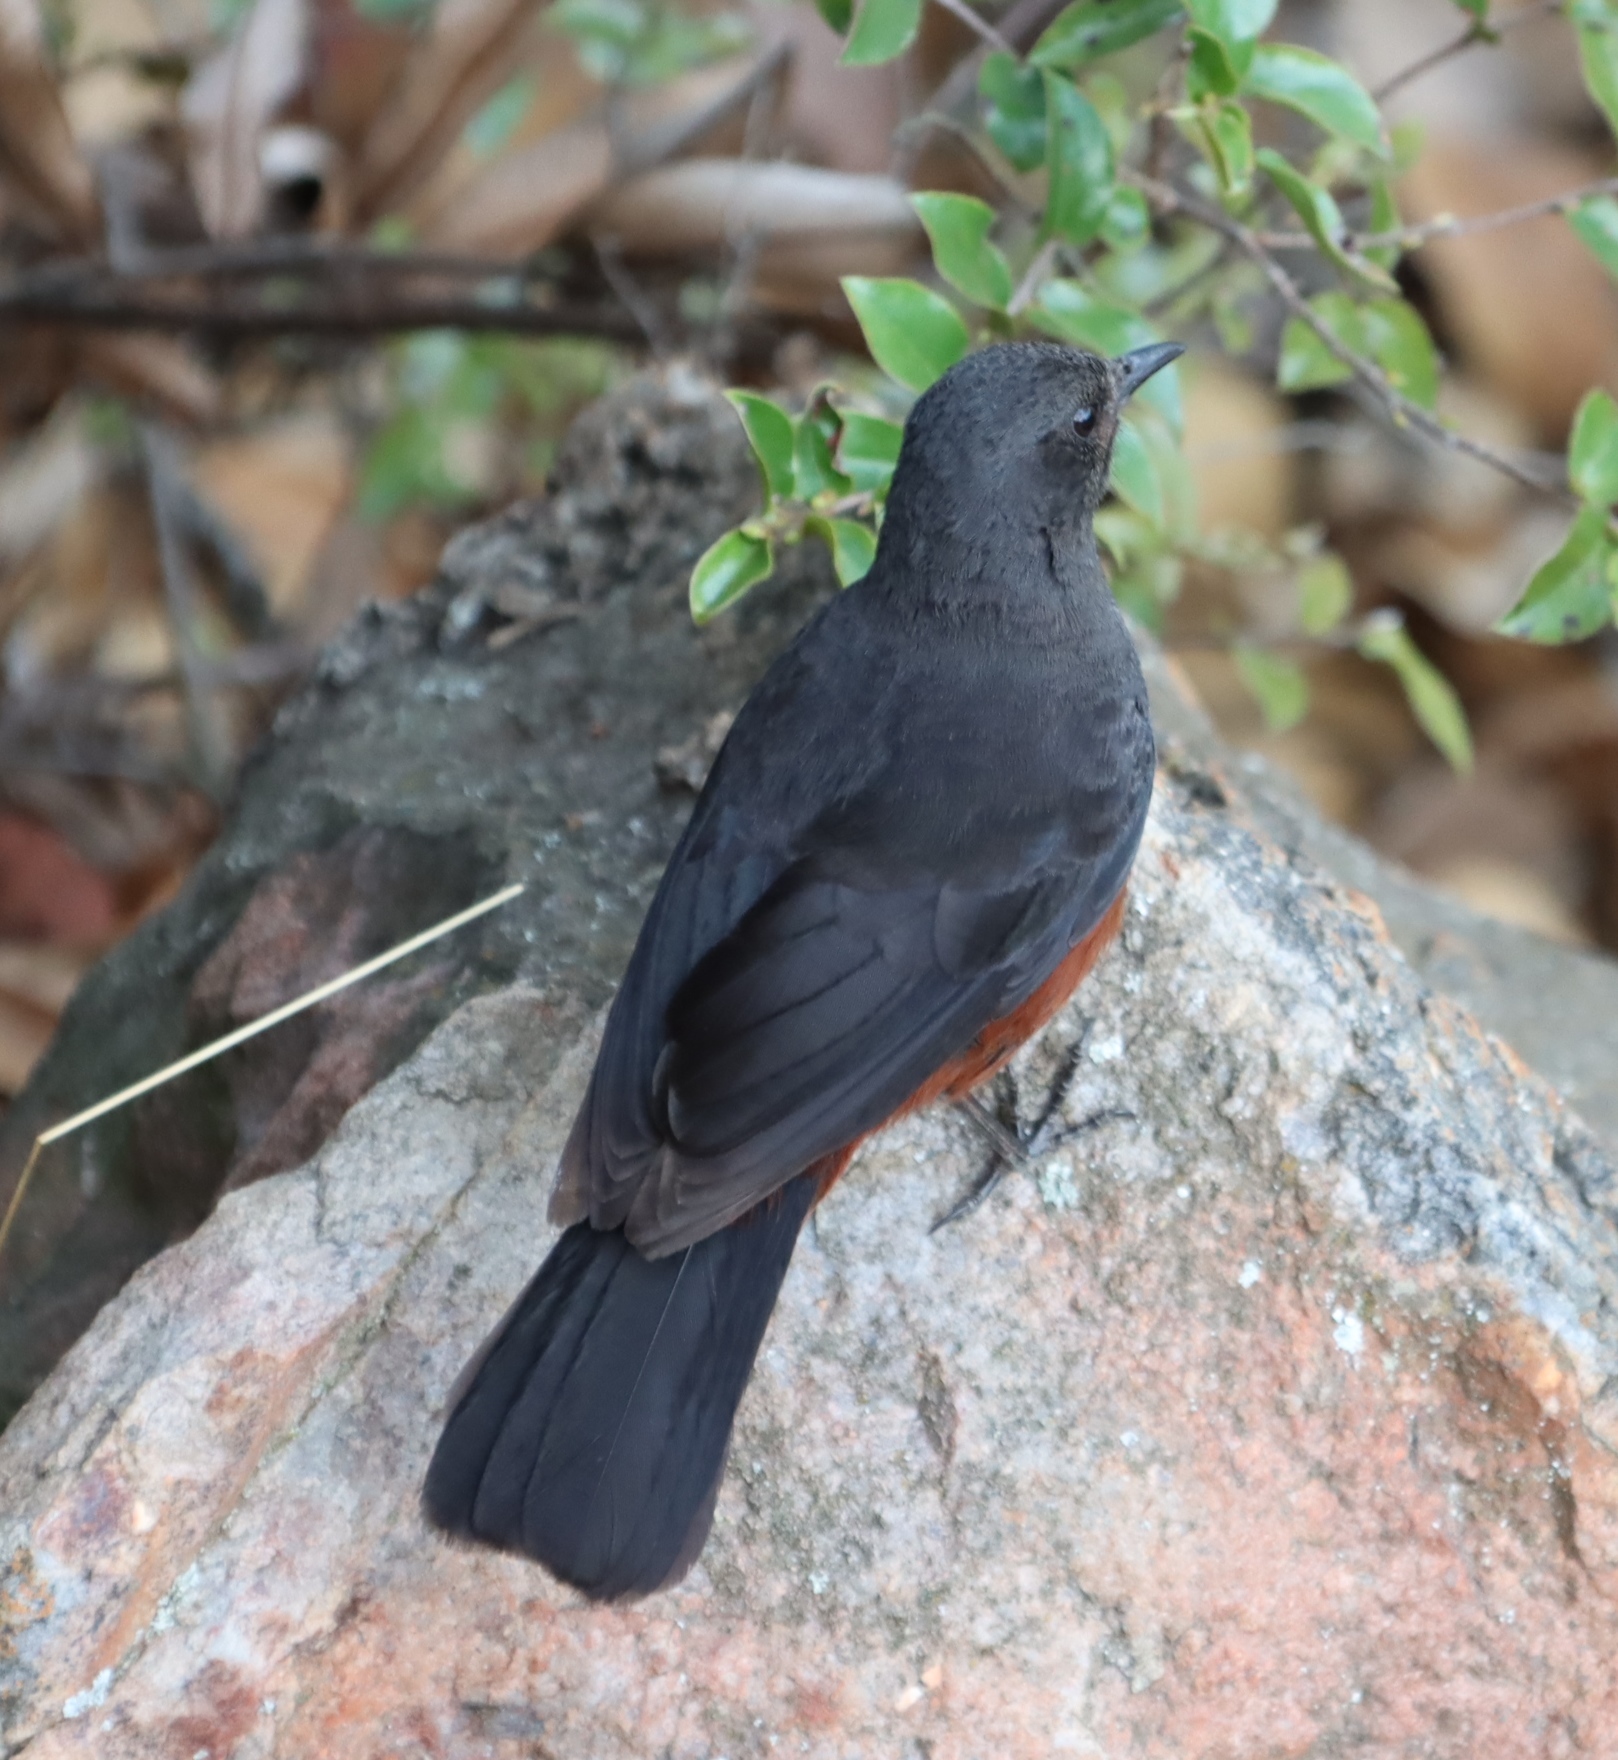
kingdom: Animalia
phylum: Chordata
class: Aves
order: Passeriformes
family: Muscicapidae
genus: Thamnolaea
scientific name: Thamnolaea cinnamomeiventris
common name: Mocking cliff chat
